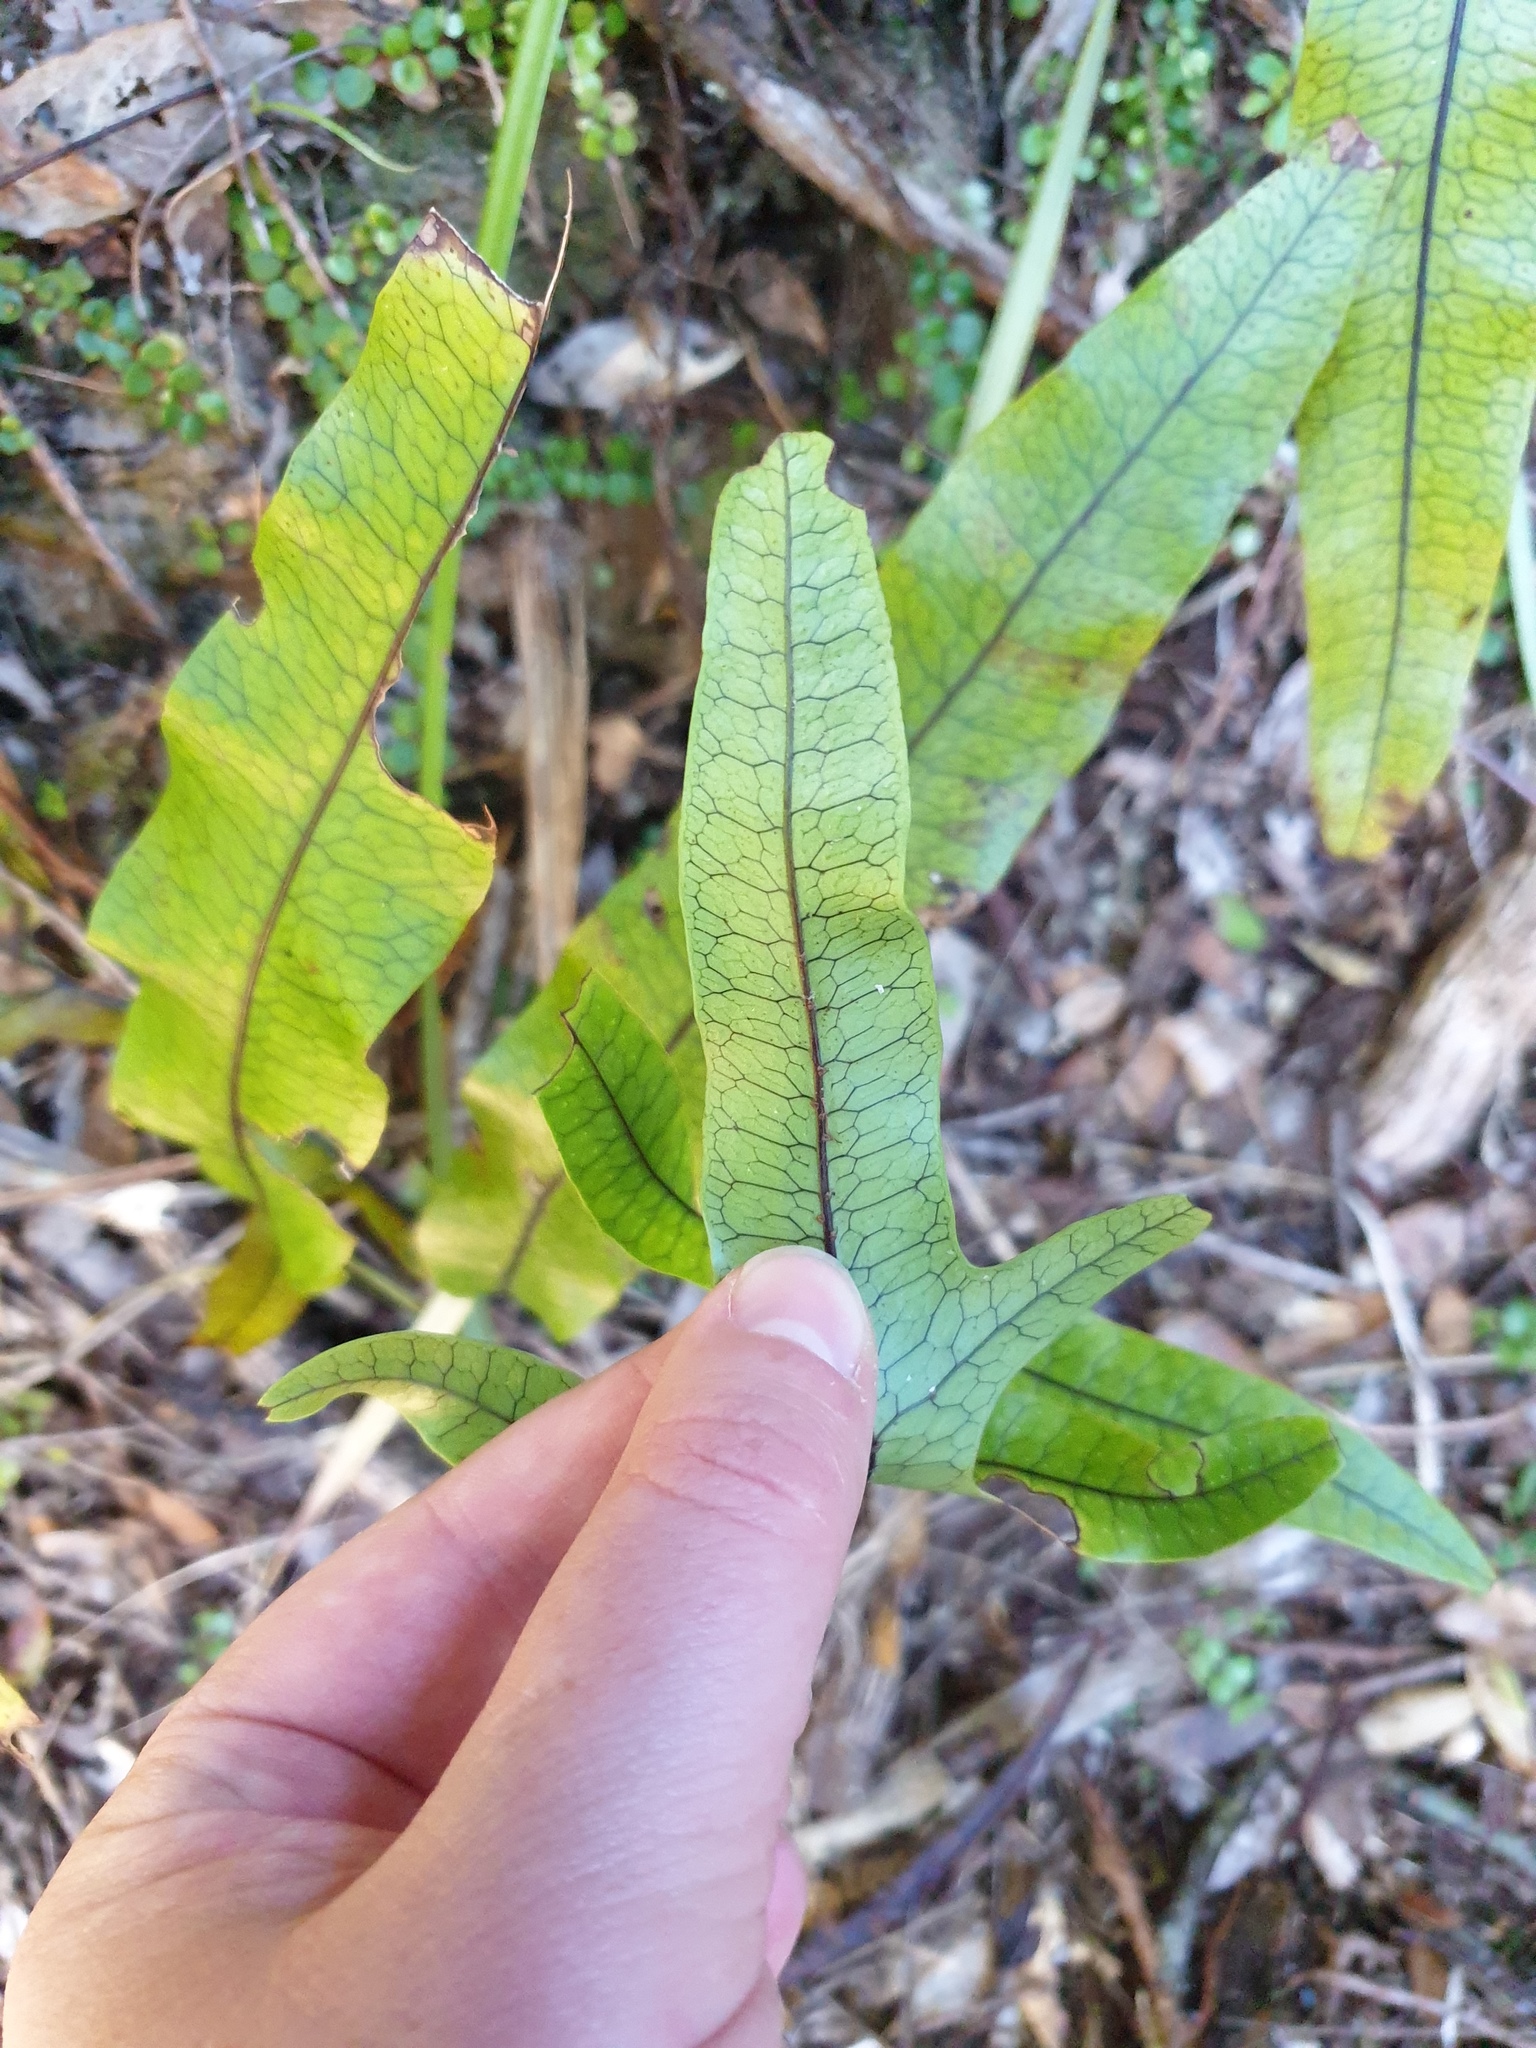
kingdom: Plantae
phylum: Tracheophyta
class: Polypodiopsida
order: Polypodiales
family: Polypodiaceae
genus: Lecanopteris
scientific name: Lecanopteris pustulata
